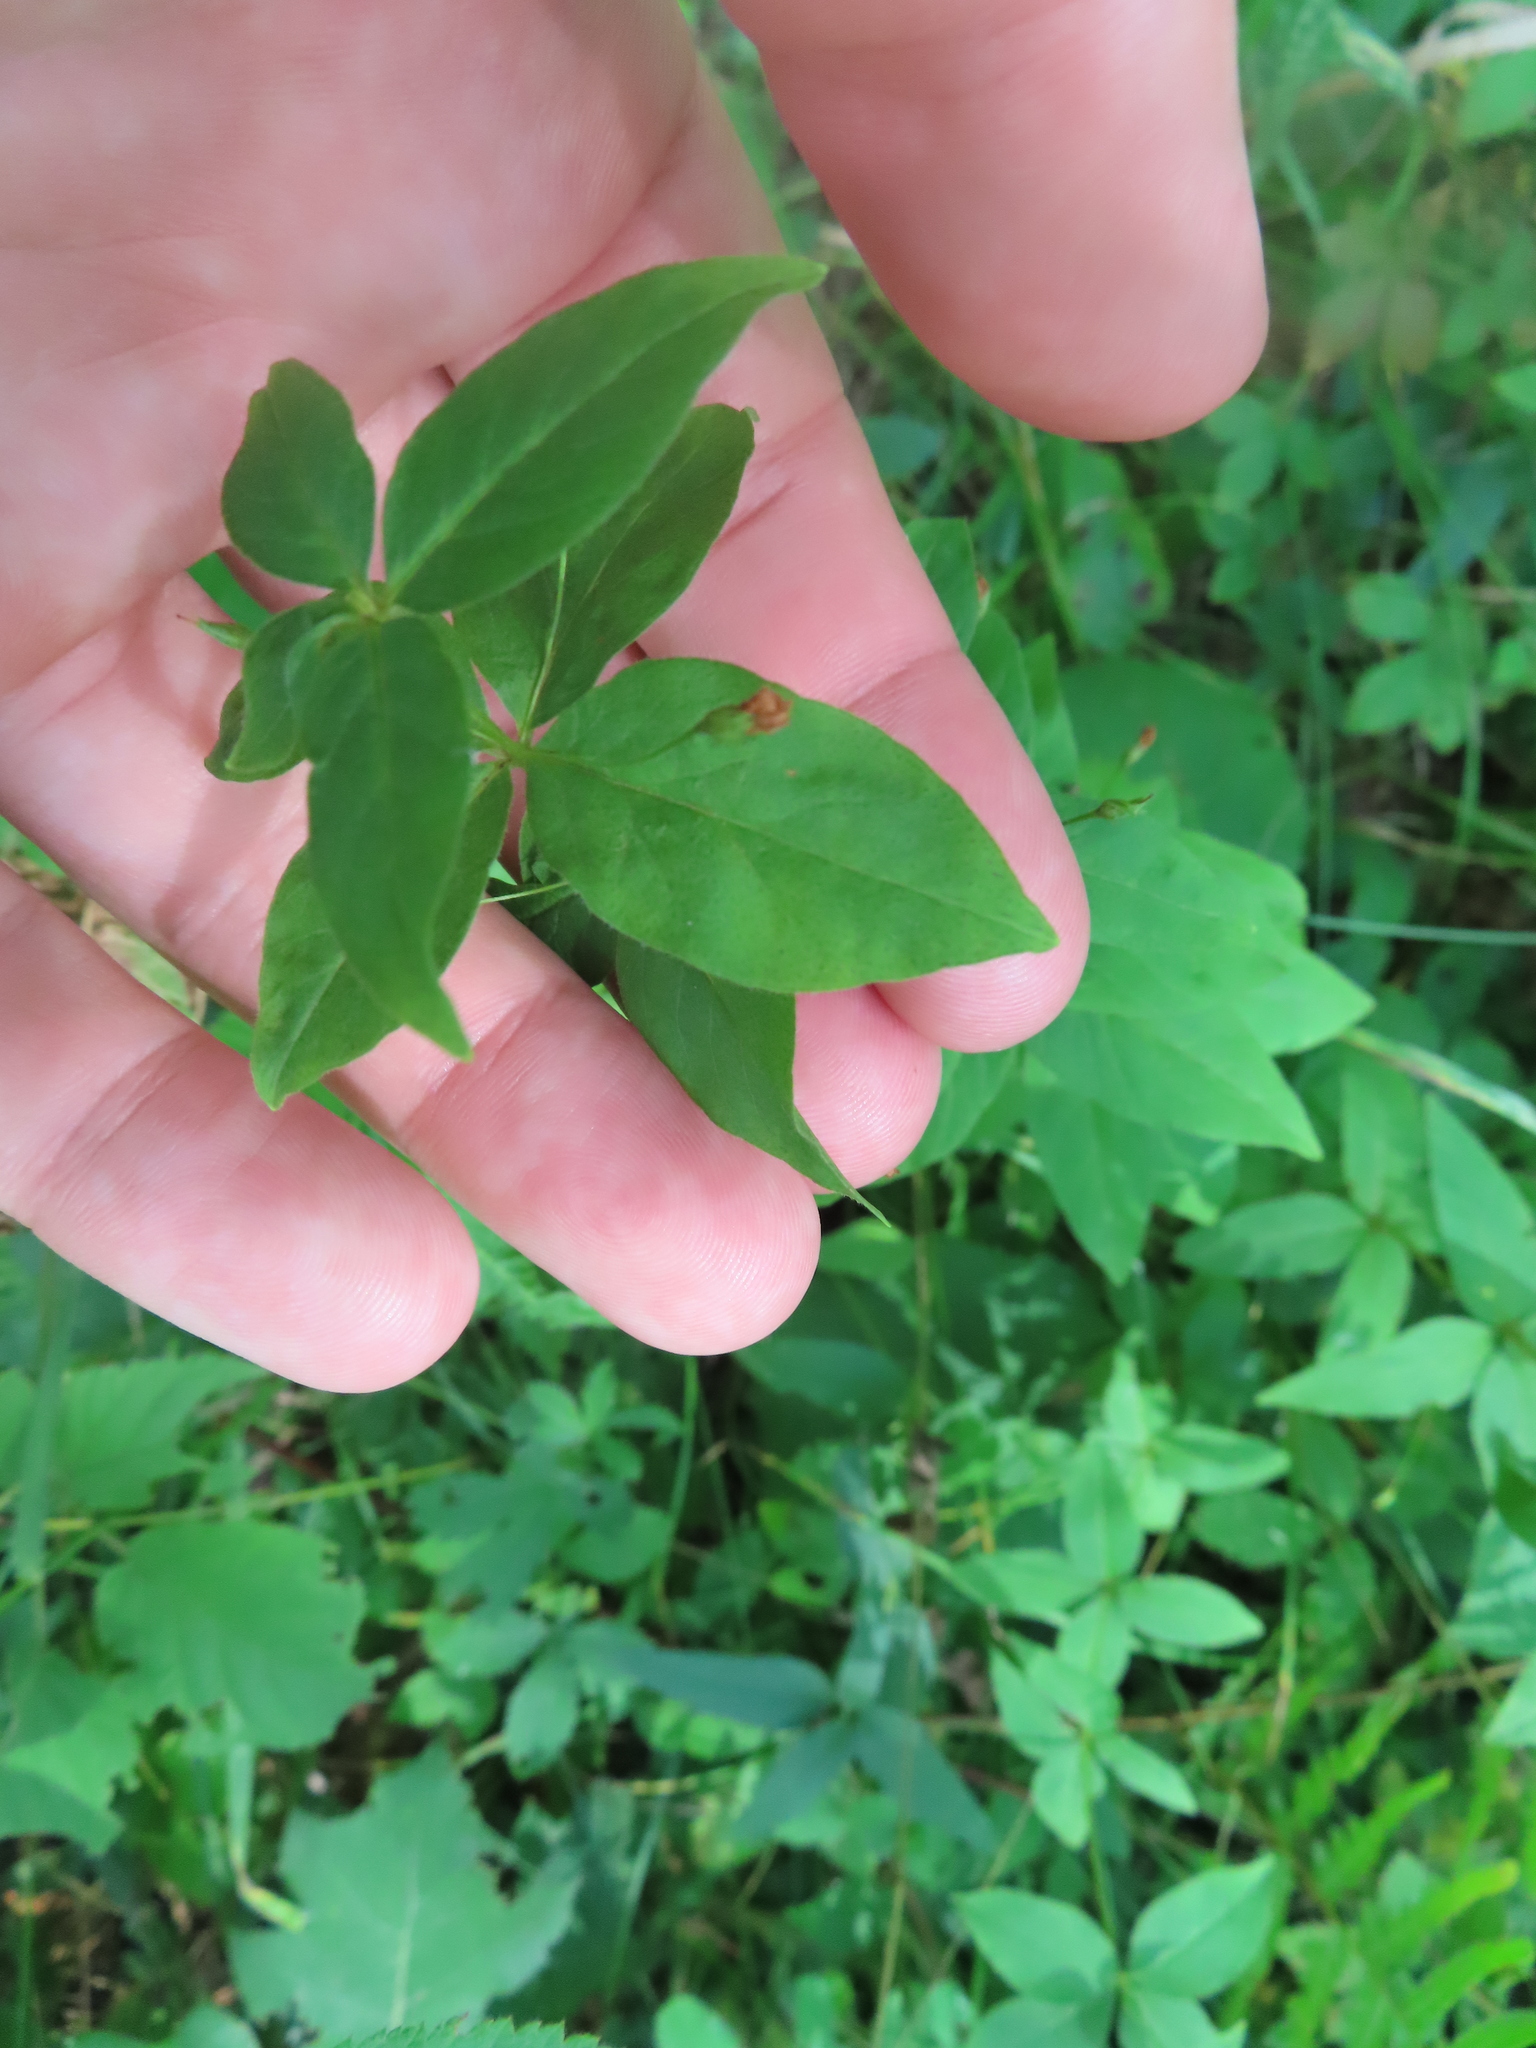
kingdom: Plantae
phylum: Tracheophyta
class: Magnoliopsida
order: Ericales
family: Primulaceae
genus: Lysimachia
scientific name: Lysimachia quadrifolia
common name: Whorled loosestrife
